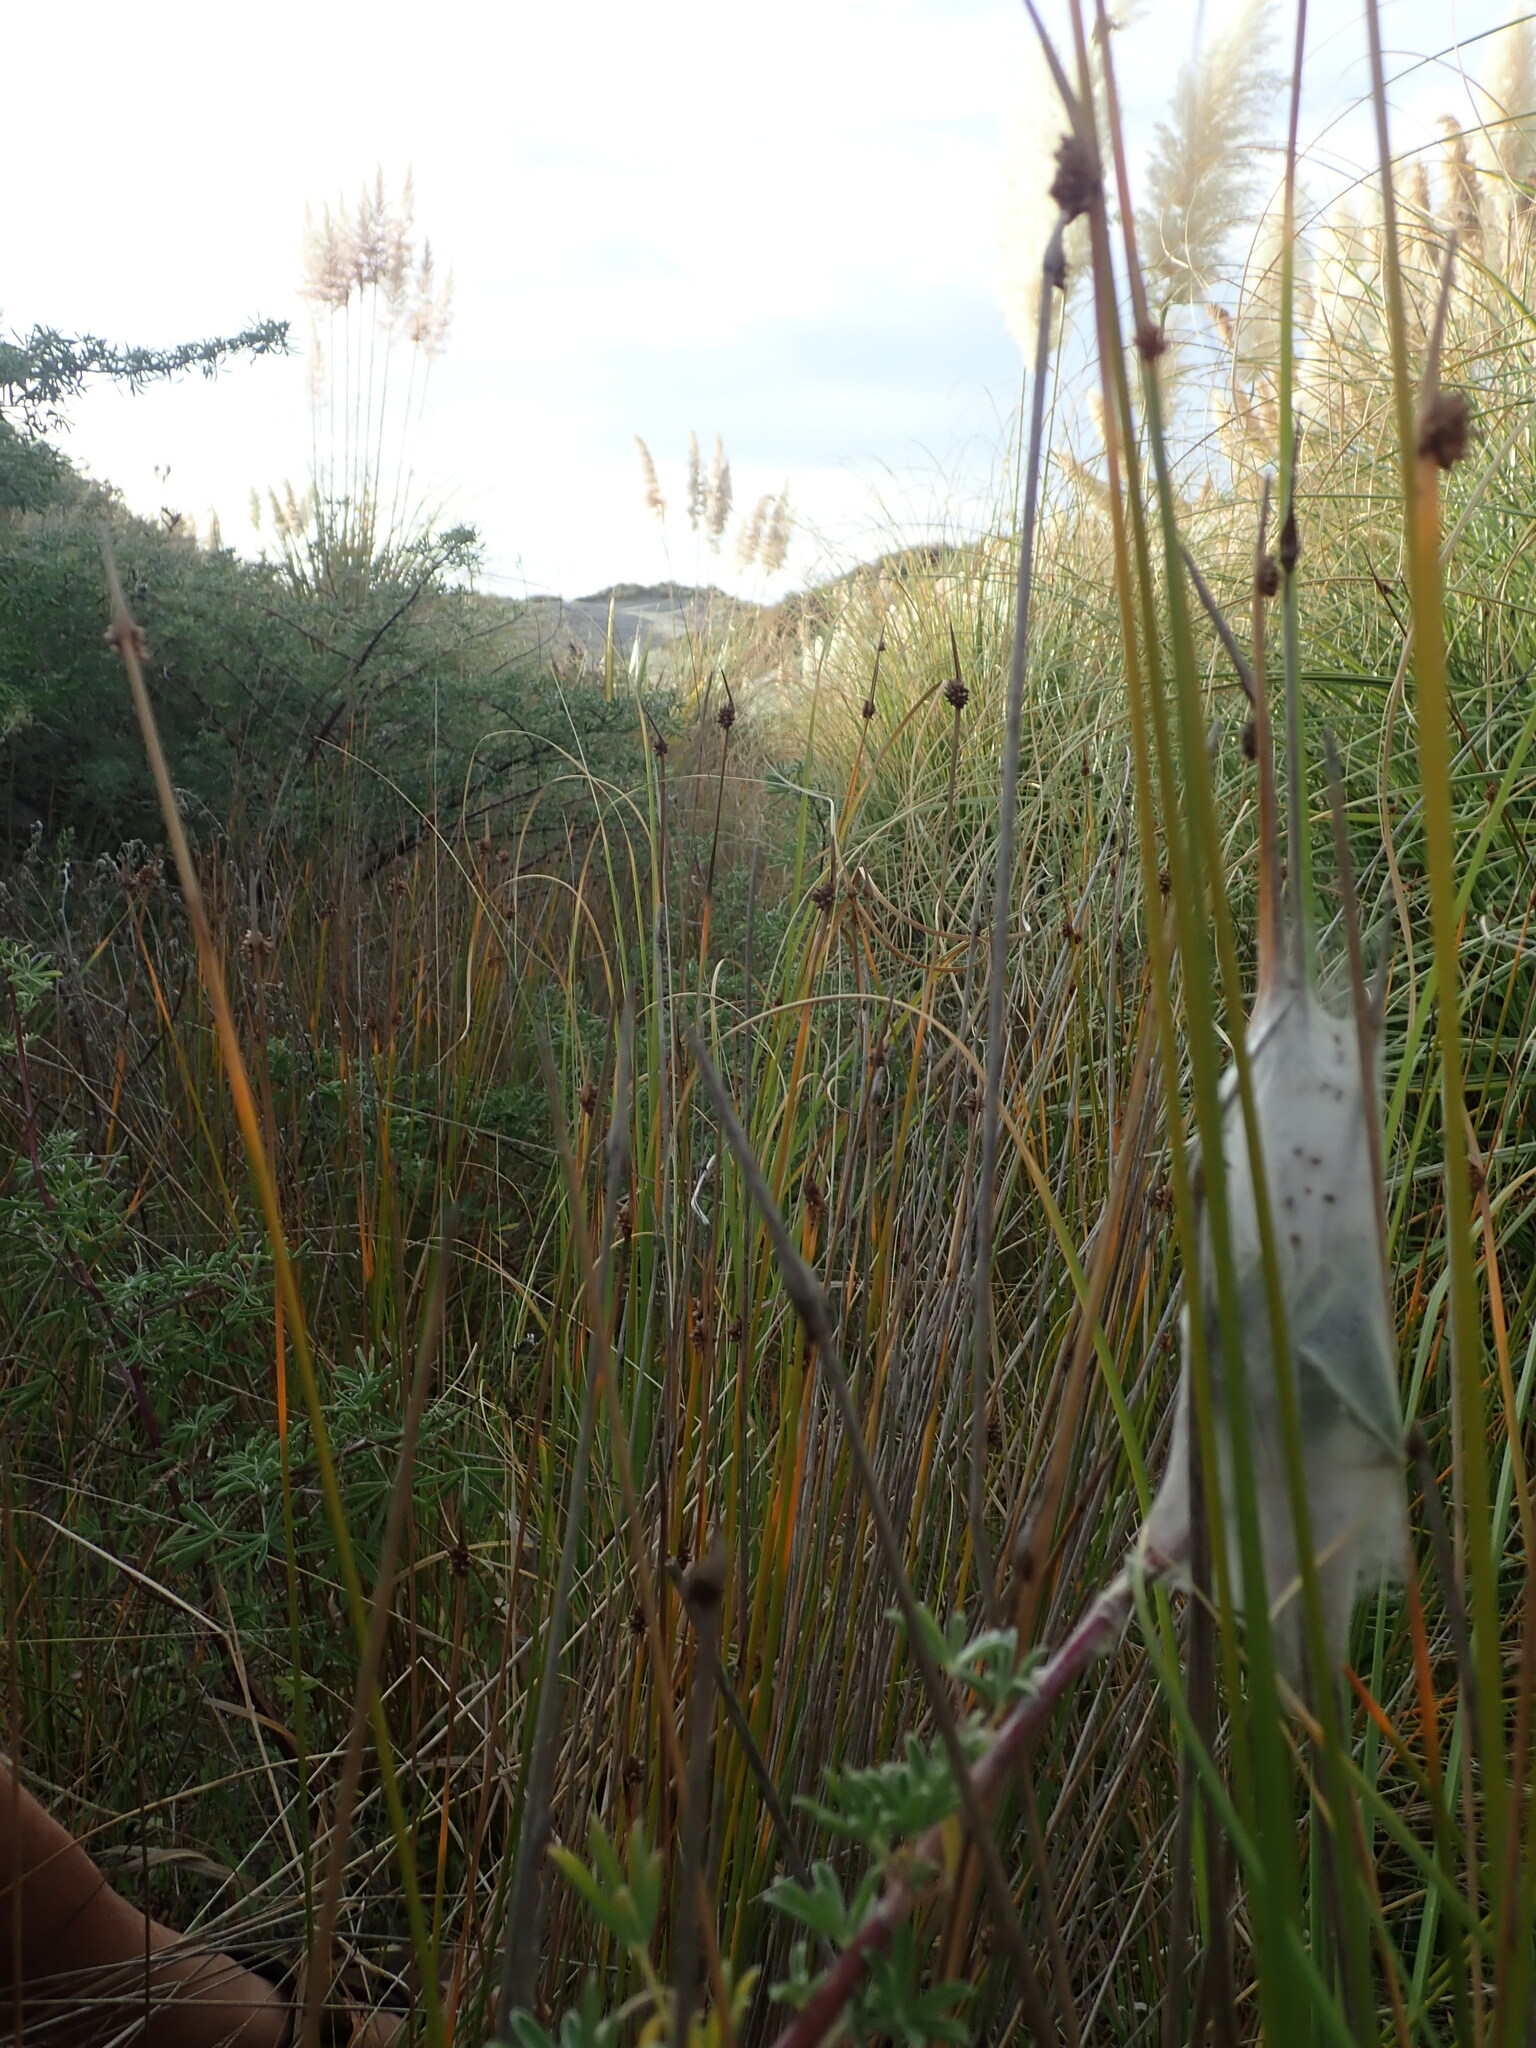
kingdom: Animalia
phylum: Arthropoda
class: Arachnida
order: Araneae
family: Pisauridae
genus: Dolomedes
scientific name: Dolomedes minor
